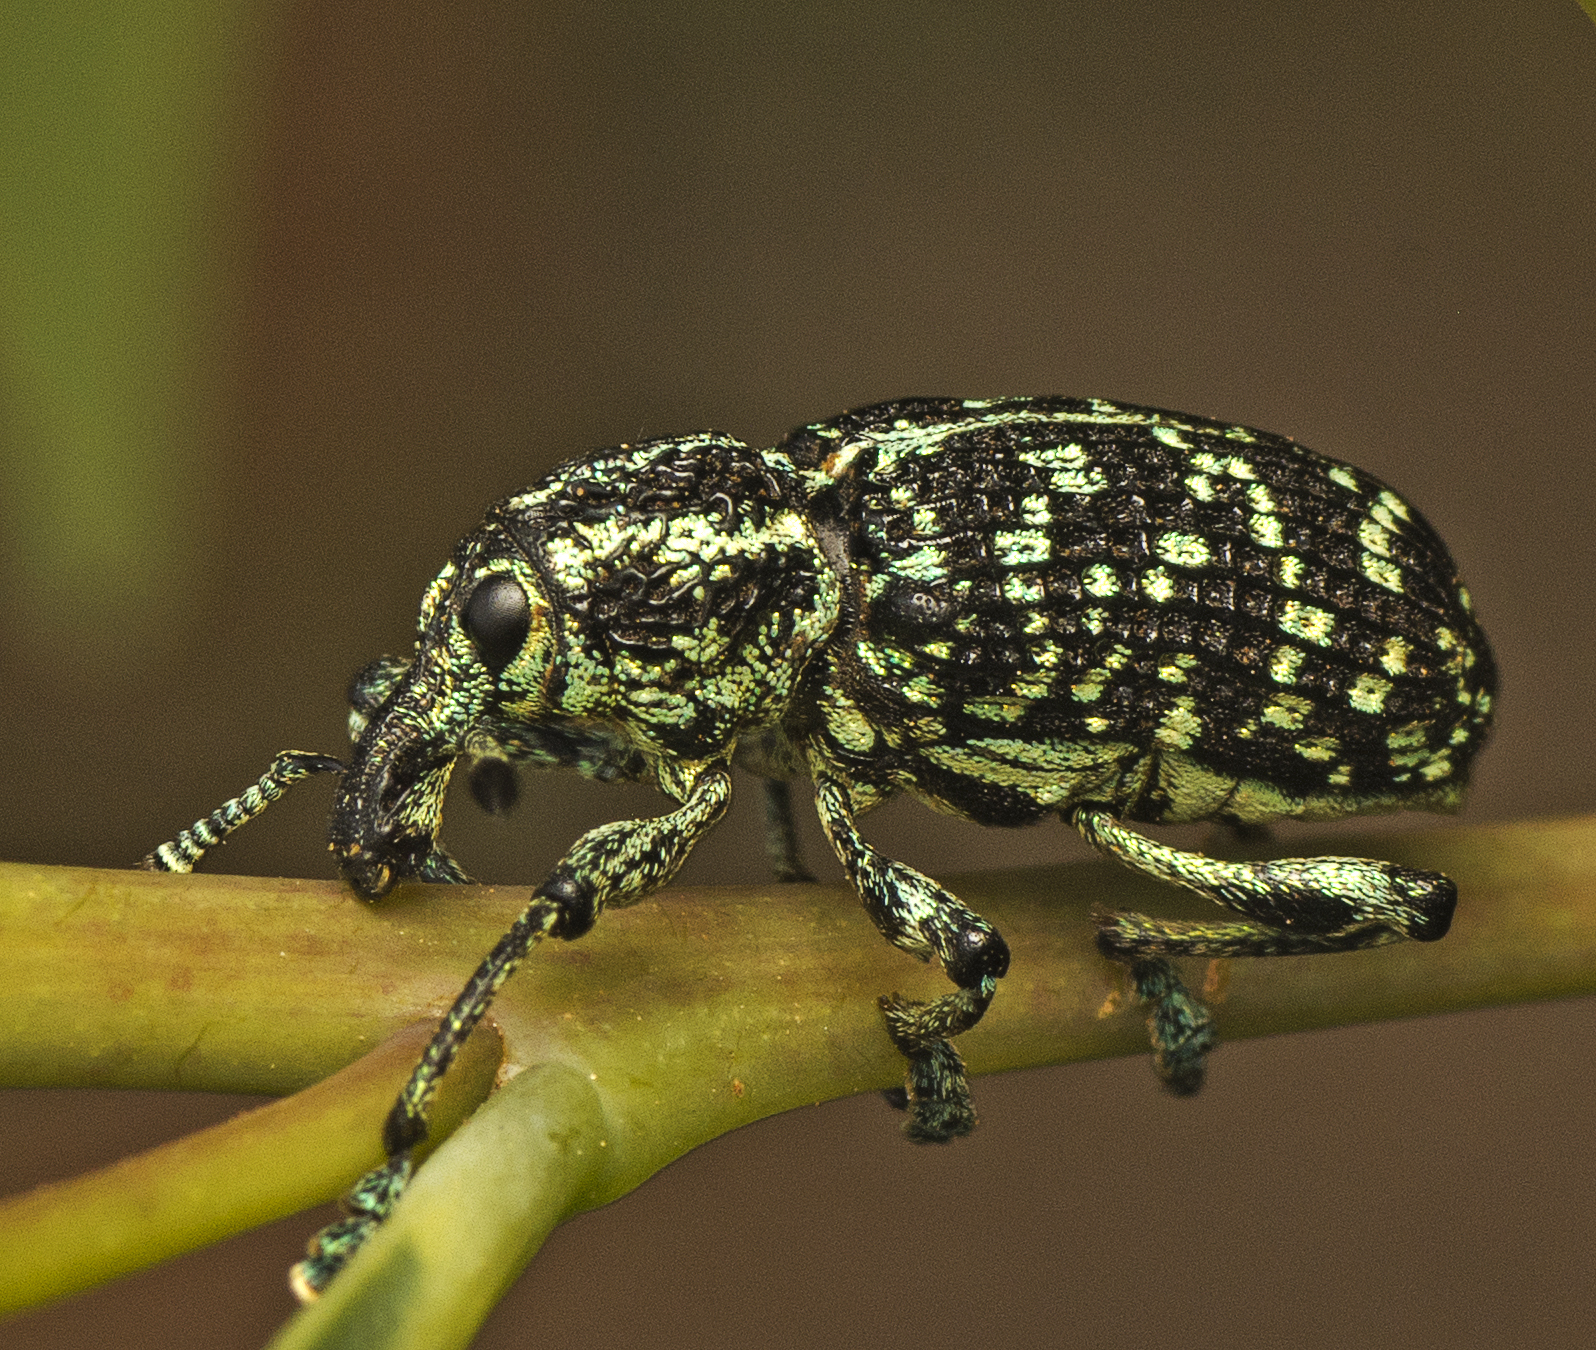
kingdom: Animalia
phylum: Arthropoda
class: Insecta
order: Coleoptera
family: Curculionidae
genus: Chrysolopus
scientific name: Chrysolopus spectabilis
